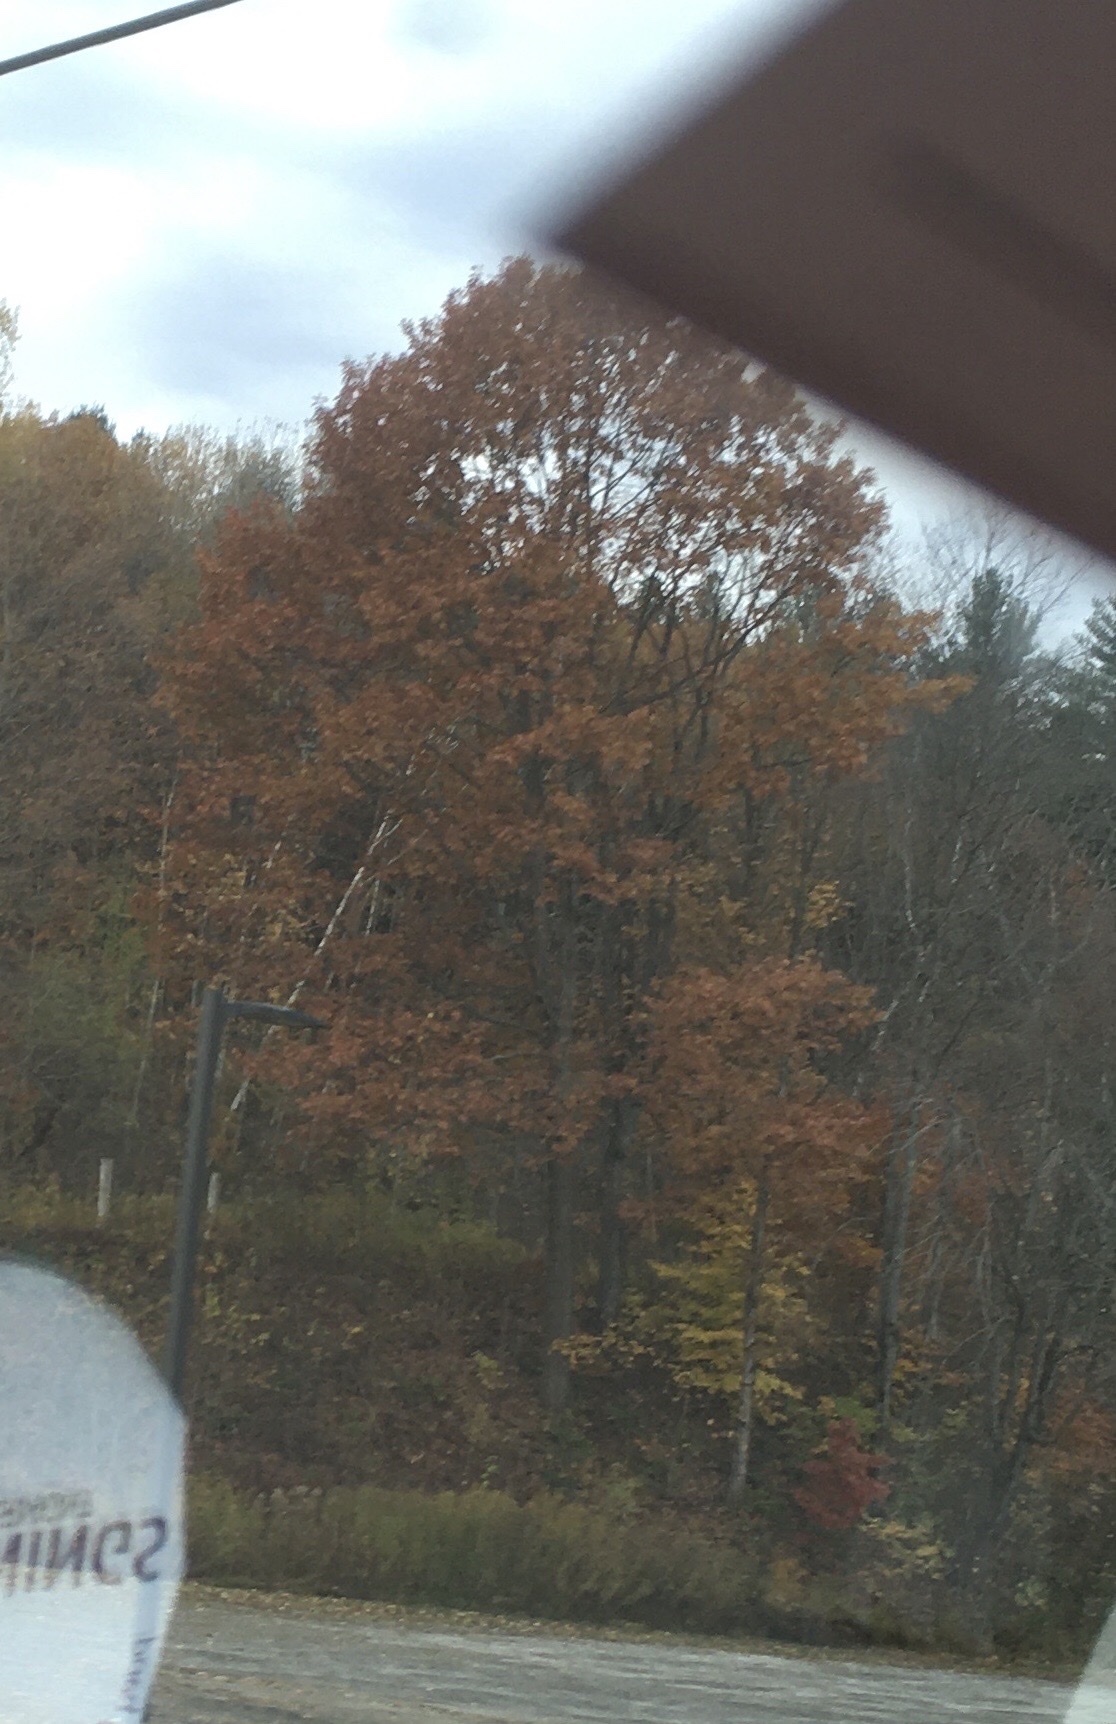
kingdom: Plantae
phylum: Tracheophyta
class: Magnoliopsida
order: Fagales
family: Fagaceae
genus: Quercus
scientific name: Quercus rubra
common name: Red oak
